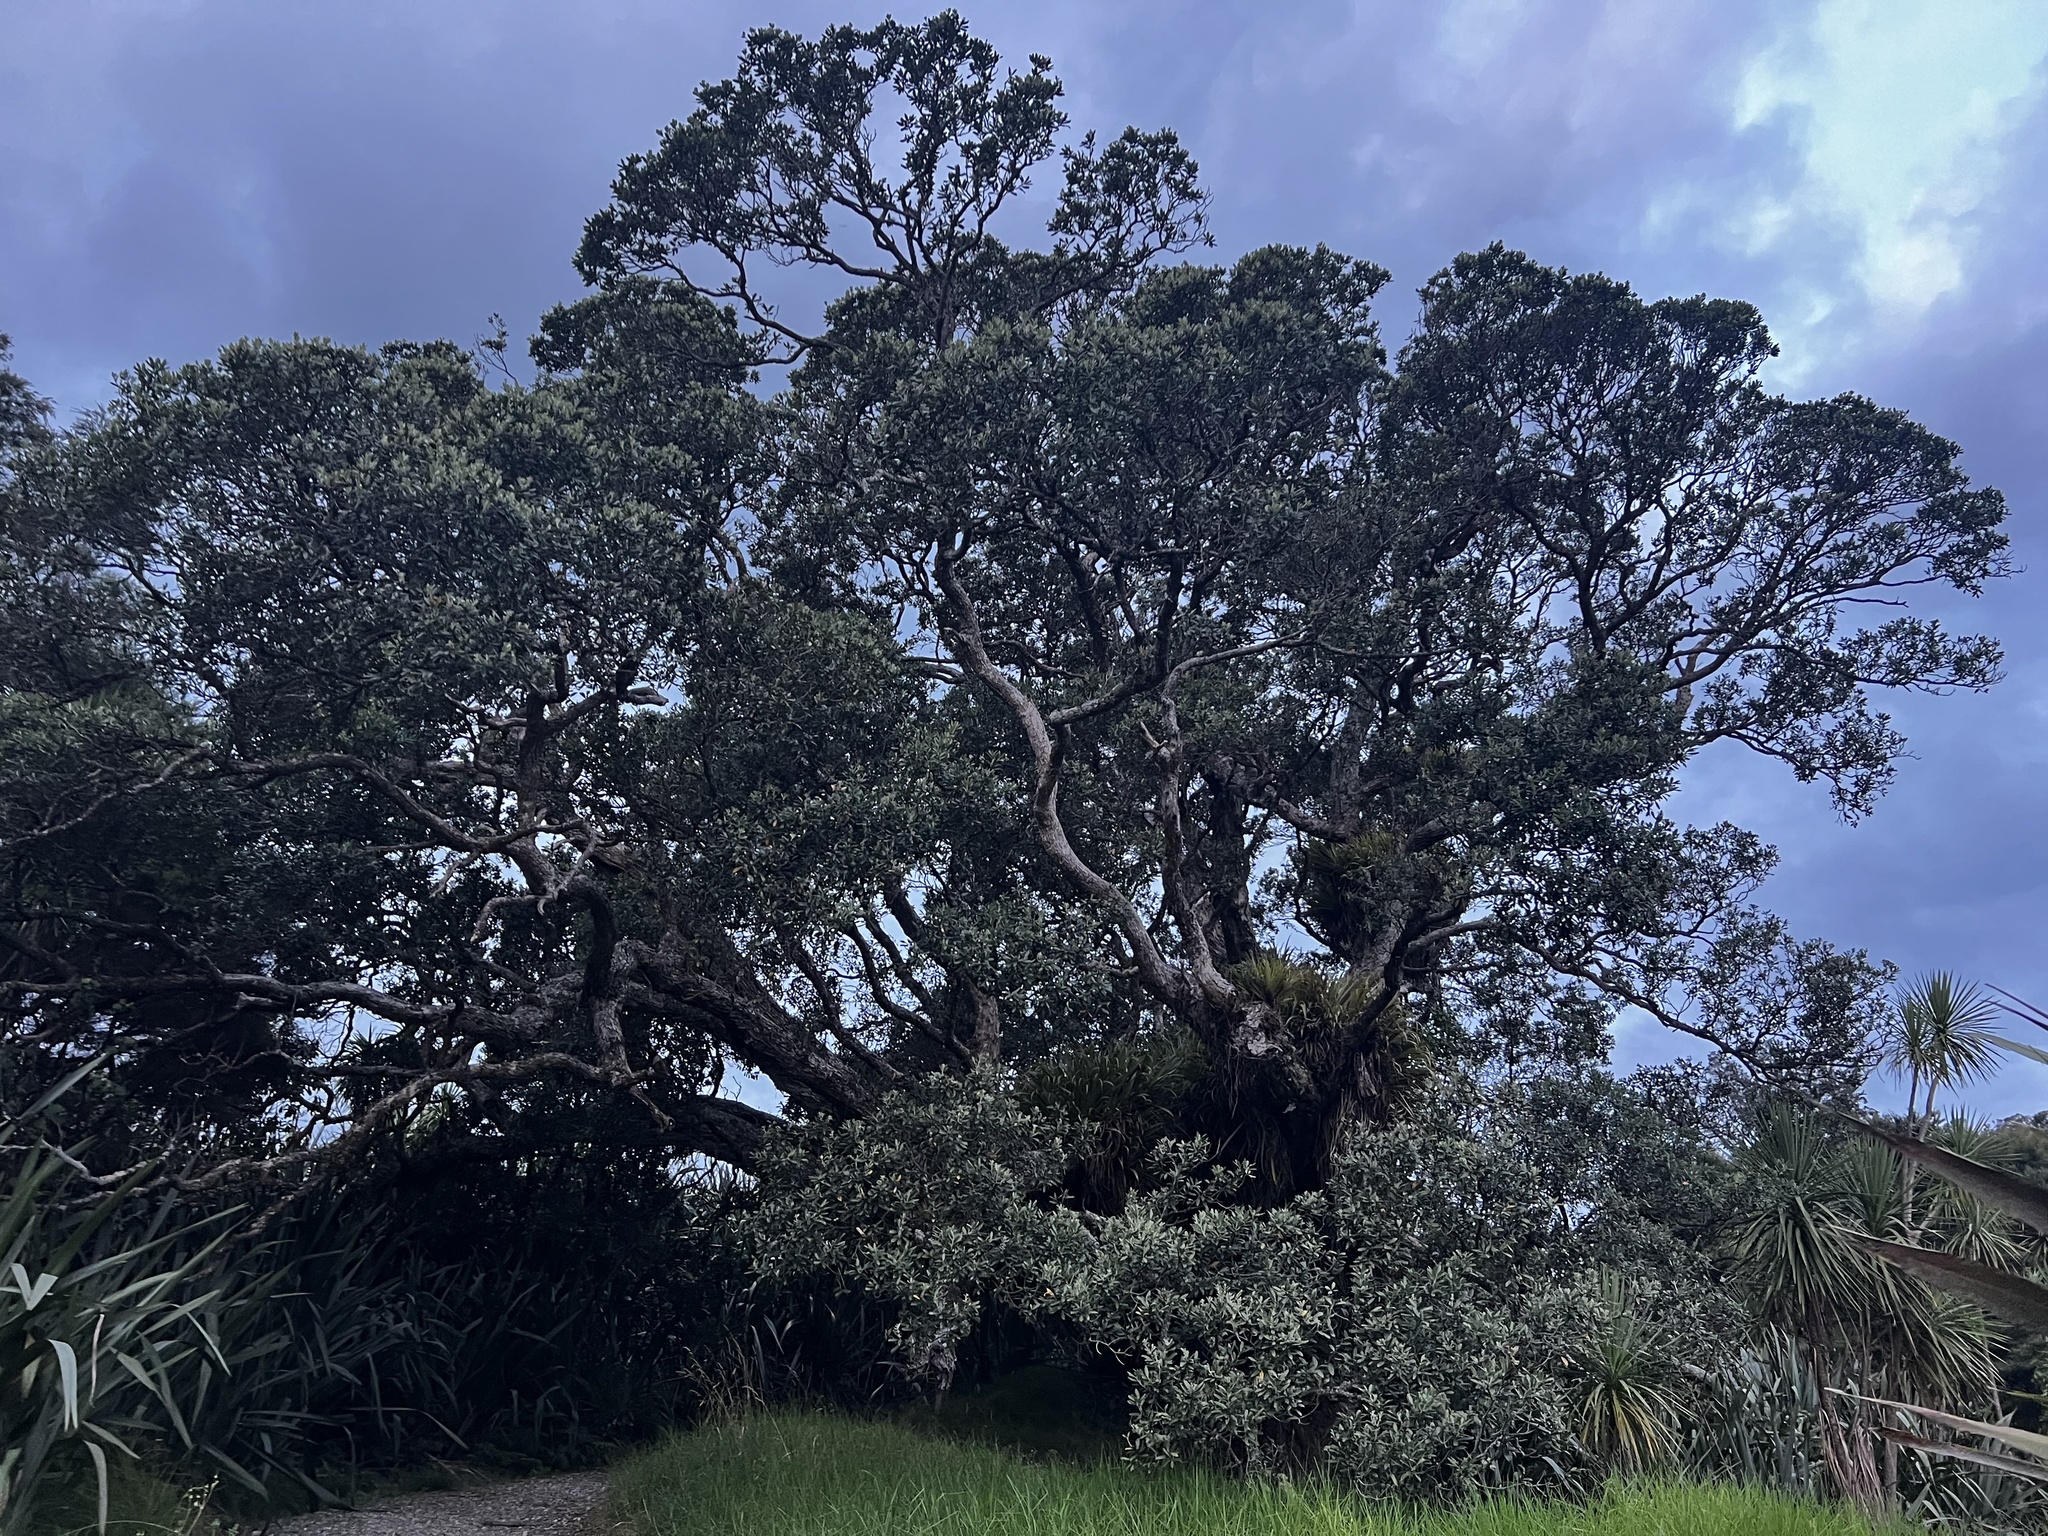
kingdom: Plantae
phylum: Tracheophyta
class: Magnoliopsida
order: Myrtales
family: Myrtaceae
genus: Metrosideros
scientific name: Metrosideros excelsa
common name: New zealand christmastree
